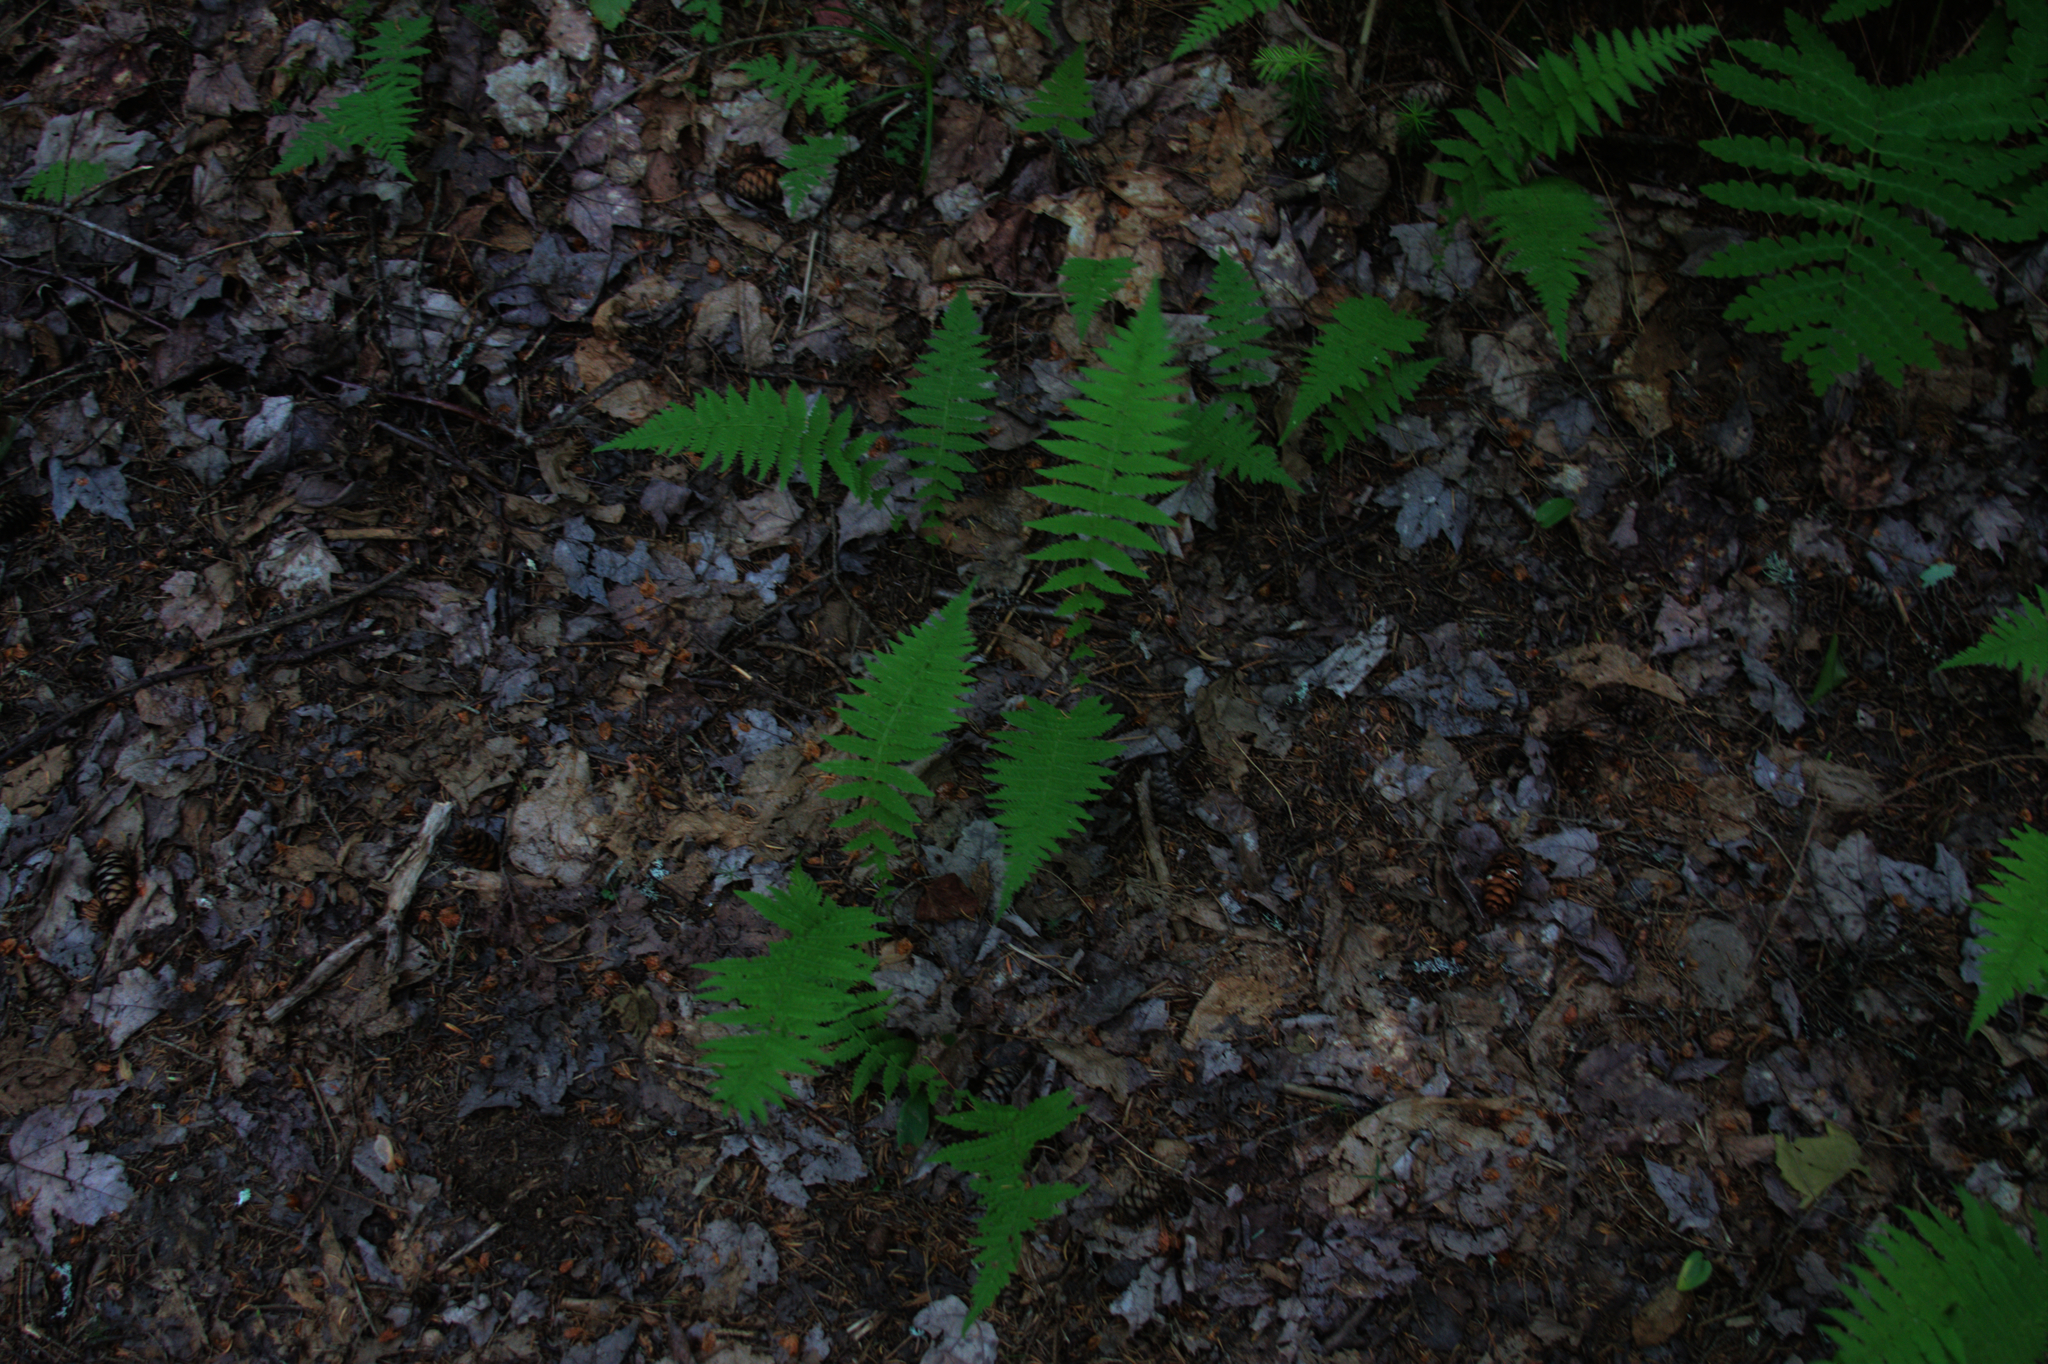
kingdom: Plantae
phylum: Tracheophyta
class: Polypodiopsida
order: Polypodiales
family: Thelypteridaceae
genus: Amauropelta
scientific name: Amauropelta noveboracensis
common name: New york fern
